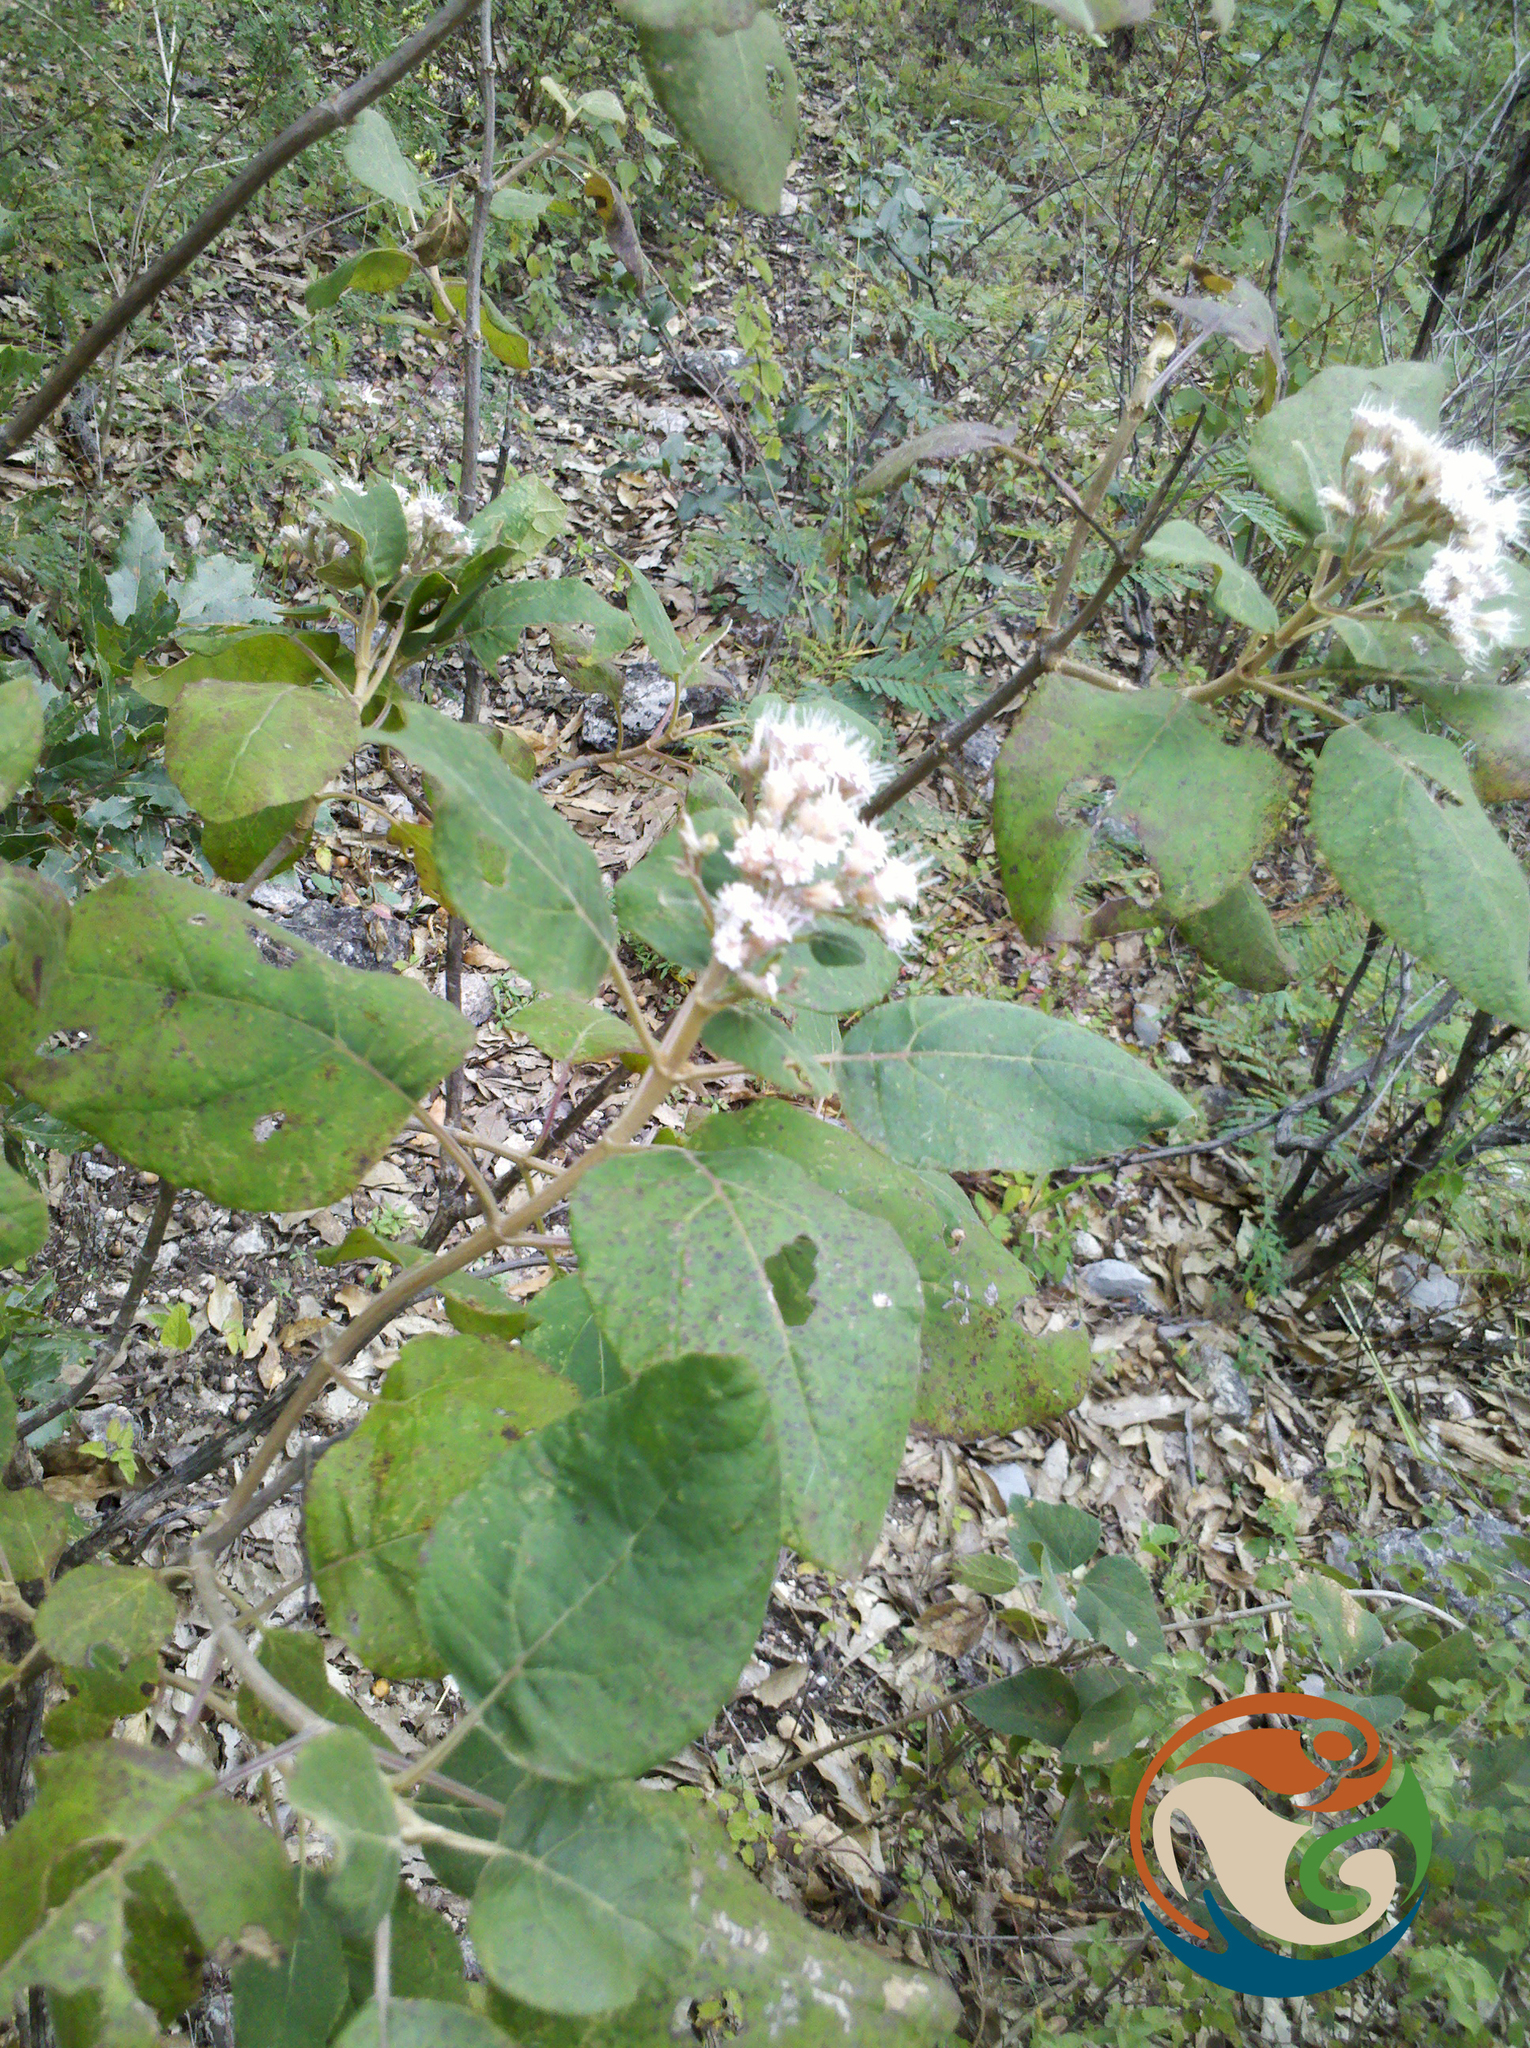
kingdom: Plantae
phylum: Tracheophyta
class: Magnoliopsida
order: Asterales
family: Asteraceae
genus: Ageratina
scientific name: Ageratina tomentella
